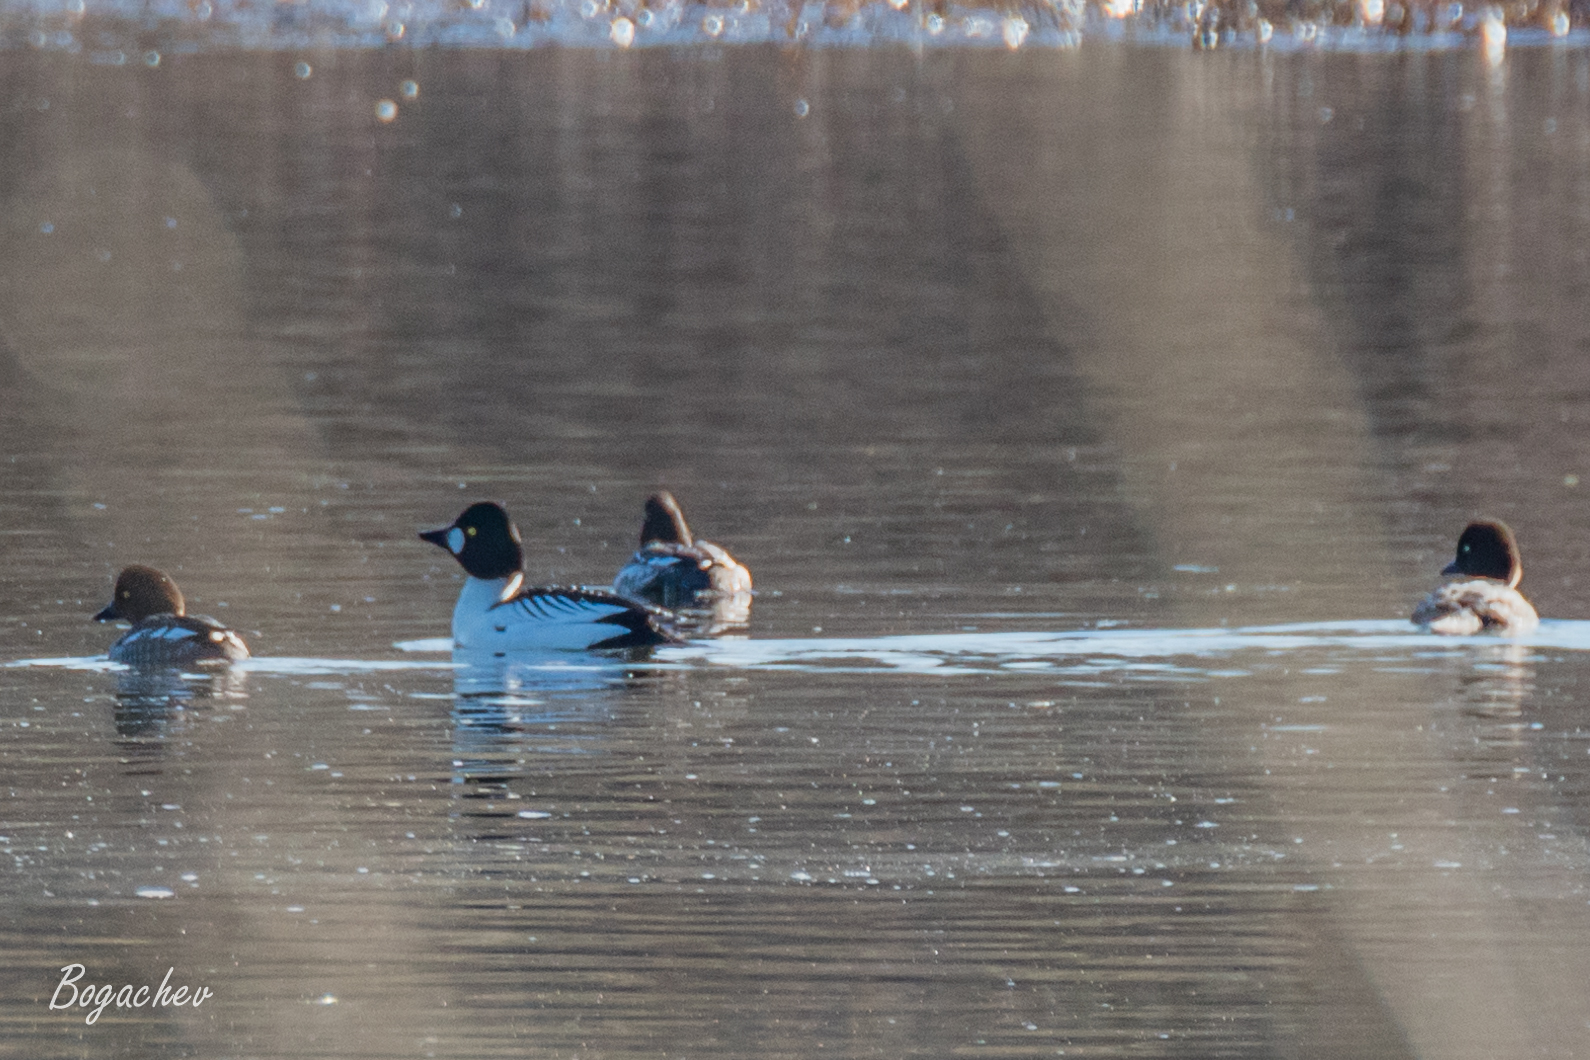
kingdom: Animalia
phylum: Chordata
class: Aves
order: Anseriformes
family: Anatidae
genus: Bucephala
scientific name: Bucephala clangula
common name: Common goldeneye
